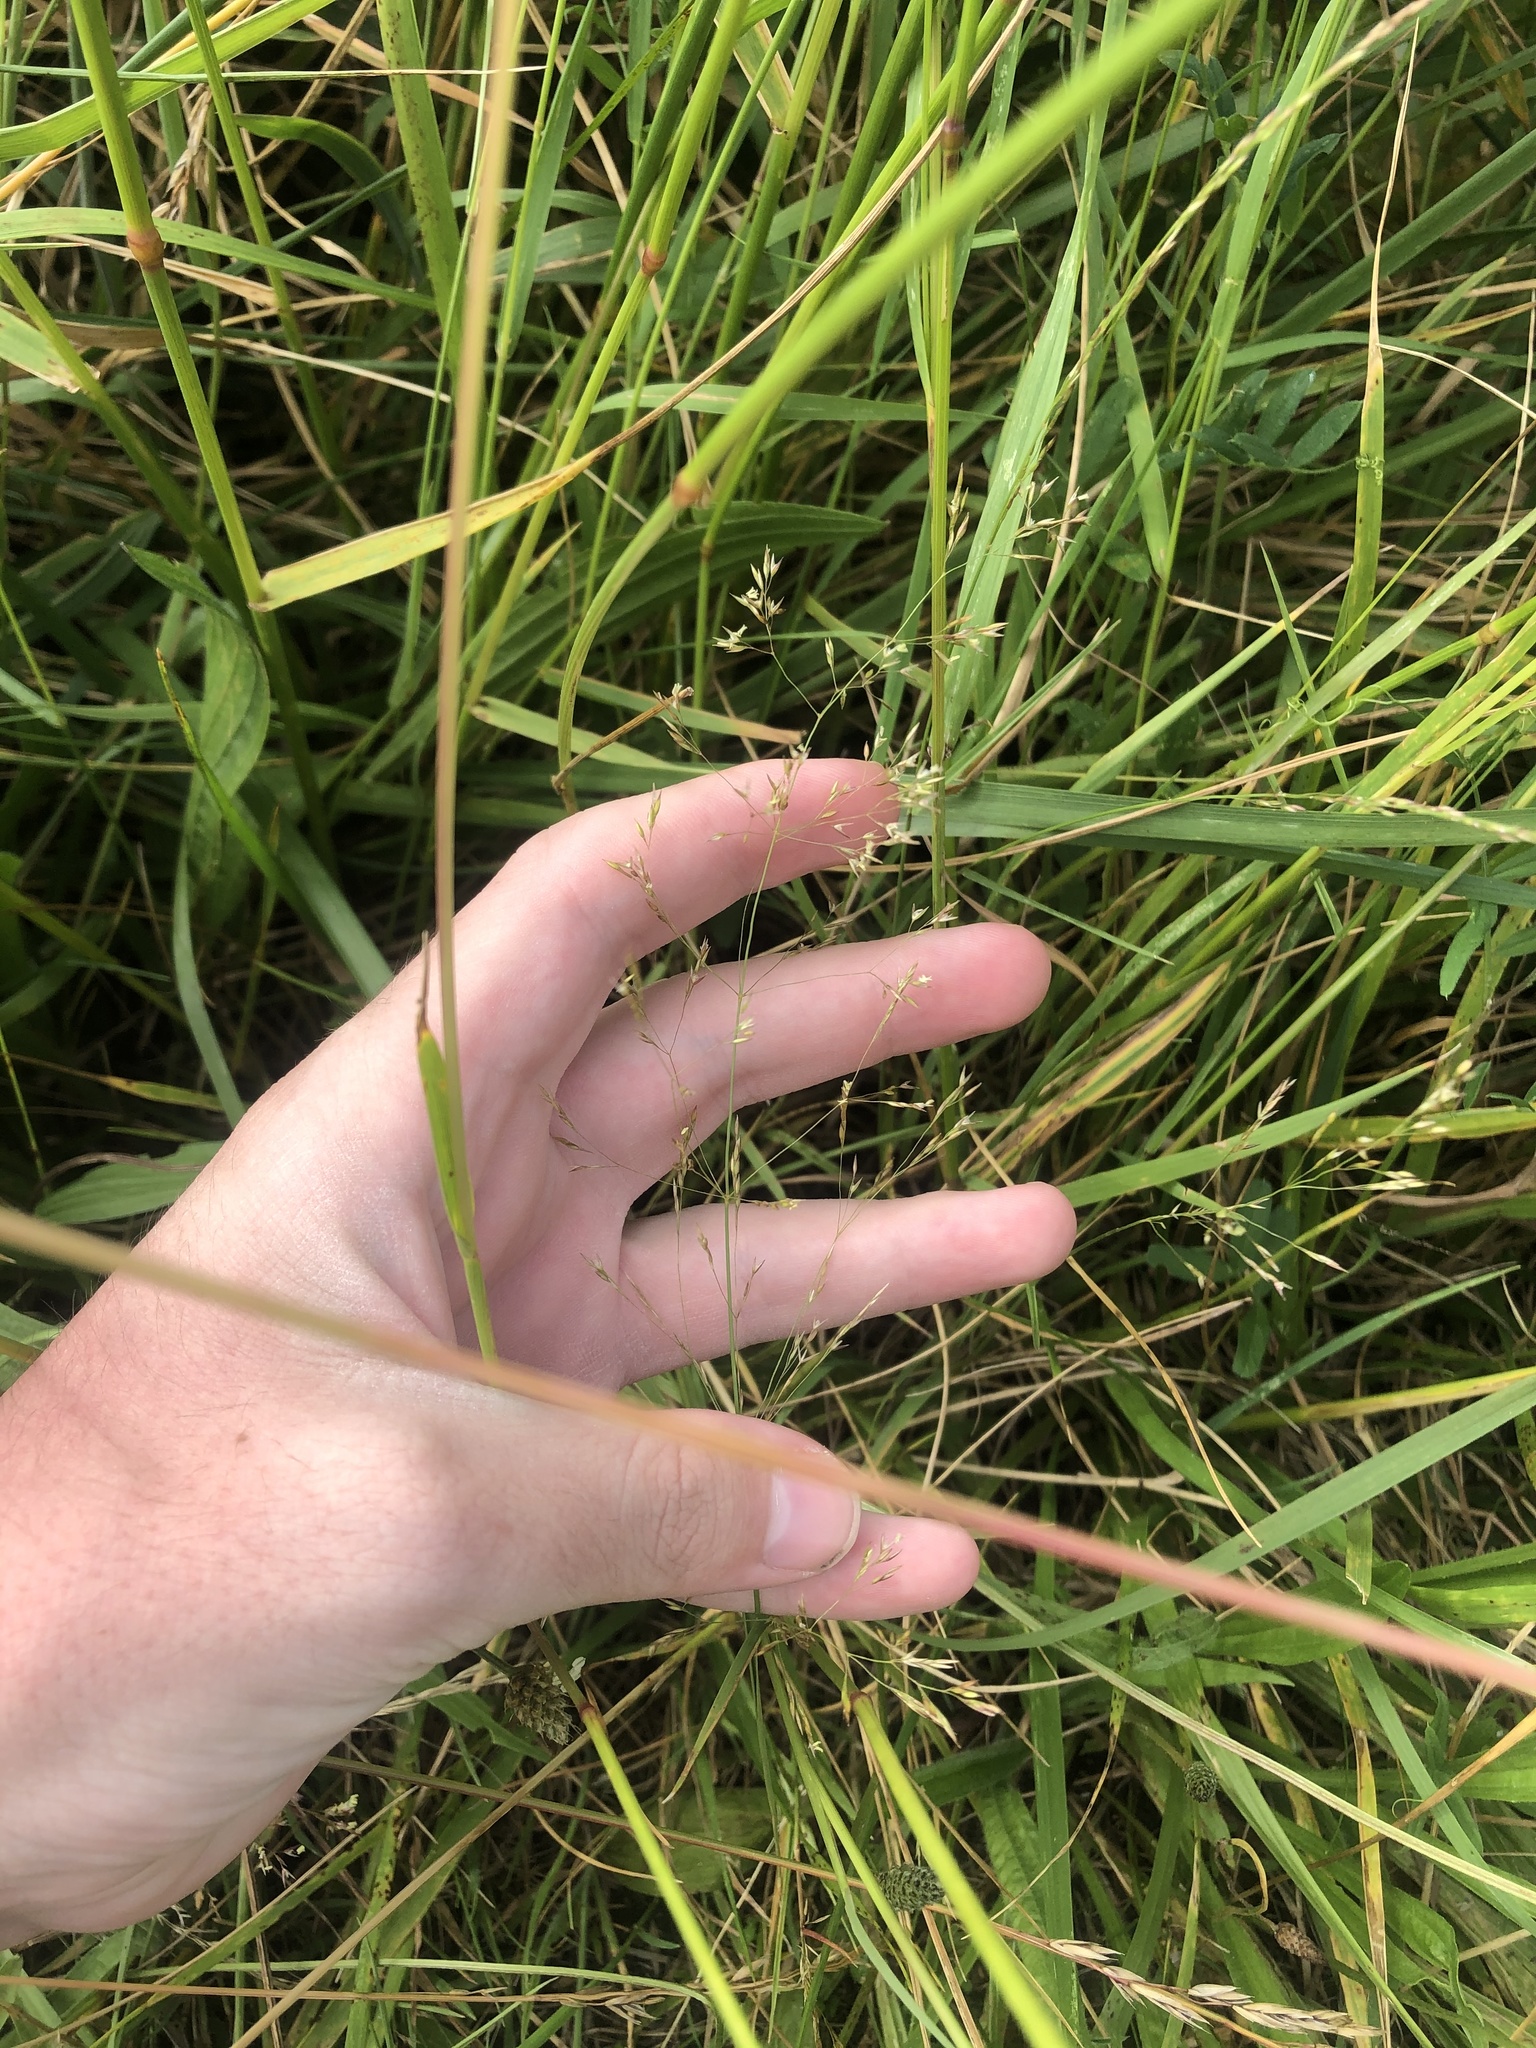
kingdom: Plantae
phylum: Tracheophyta
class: Liliopsida
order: Poales
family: Poaceae
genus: Agrostis
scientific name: Agrostis gigantea
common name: Black bent
